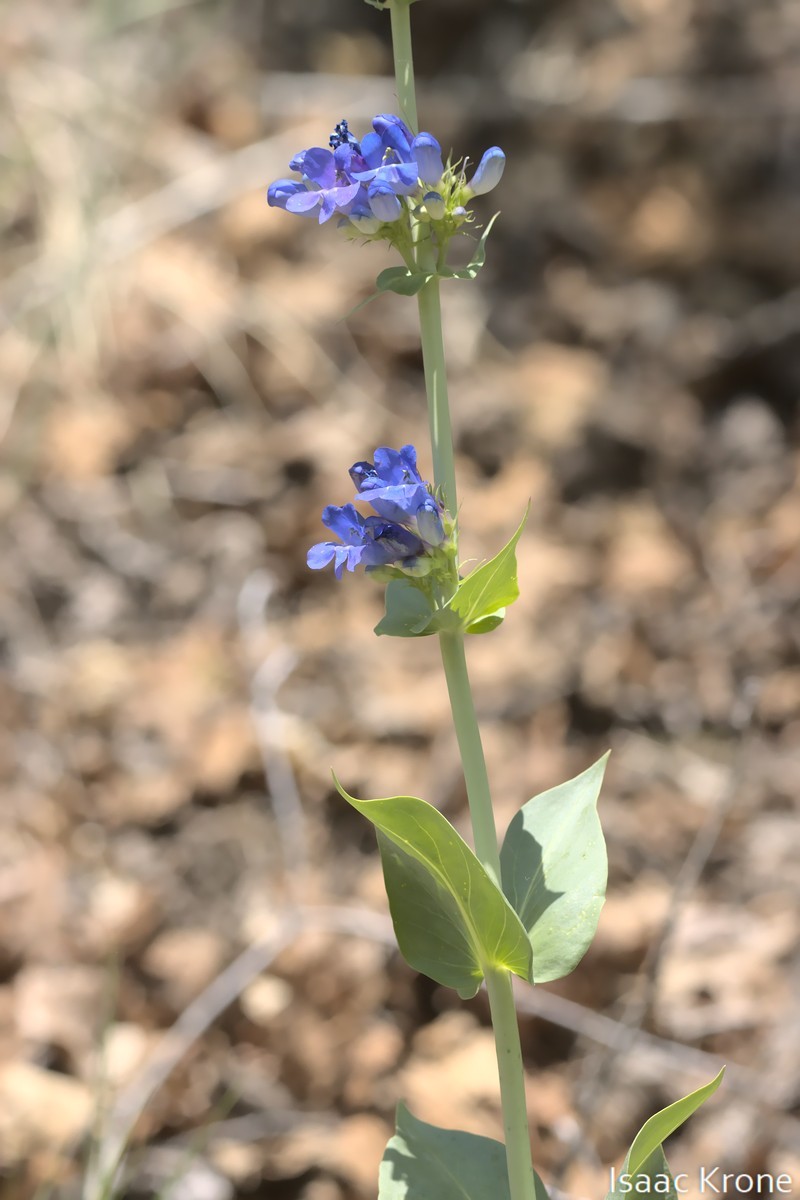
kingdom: Plantae
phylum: Tracheophyta
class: Magnoliopsida
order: Lamiales
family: Plantaginaceae
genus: Penstemon
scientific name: Penstemon cyananthus
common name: Wasatch penstemon
